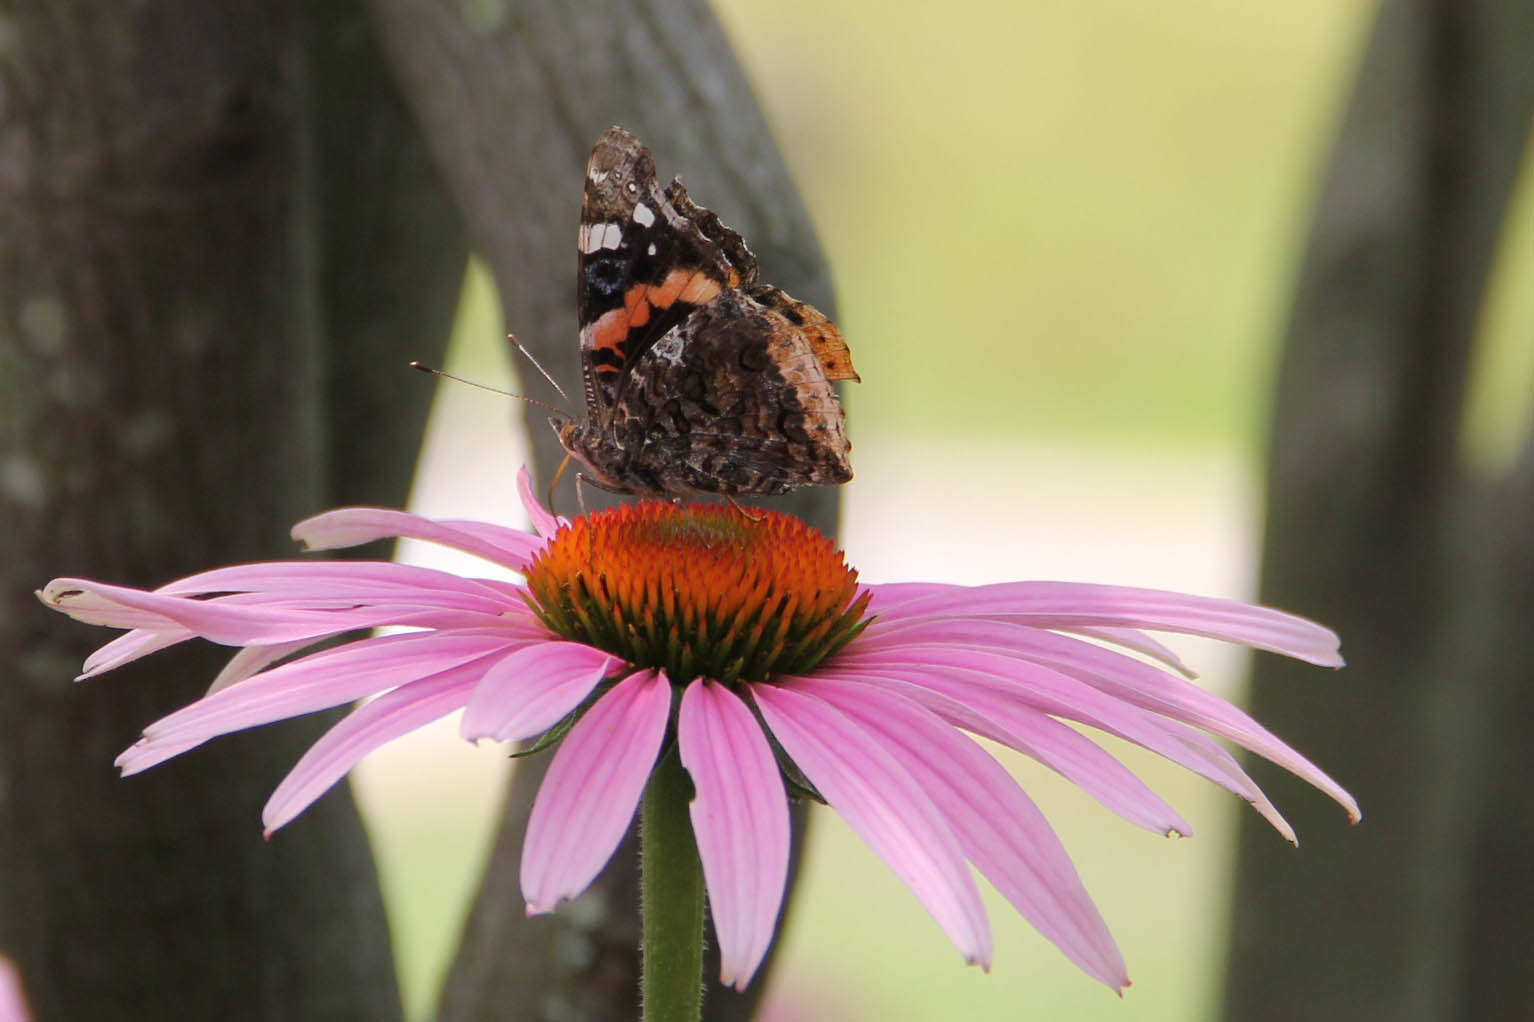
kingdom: Animalia
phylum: Arthropoda
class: Insecta
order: Lepidoptera
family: Nymphalidae
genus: Vanessa
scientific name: Vanessa atalanta
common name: Red admiral
